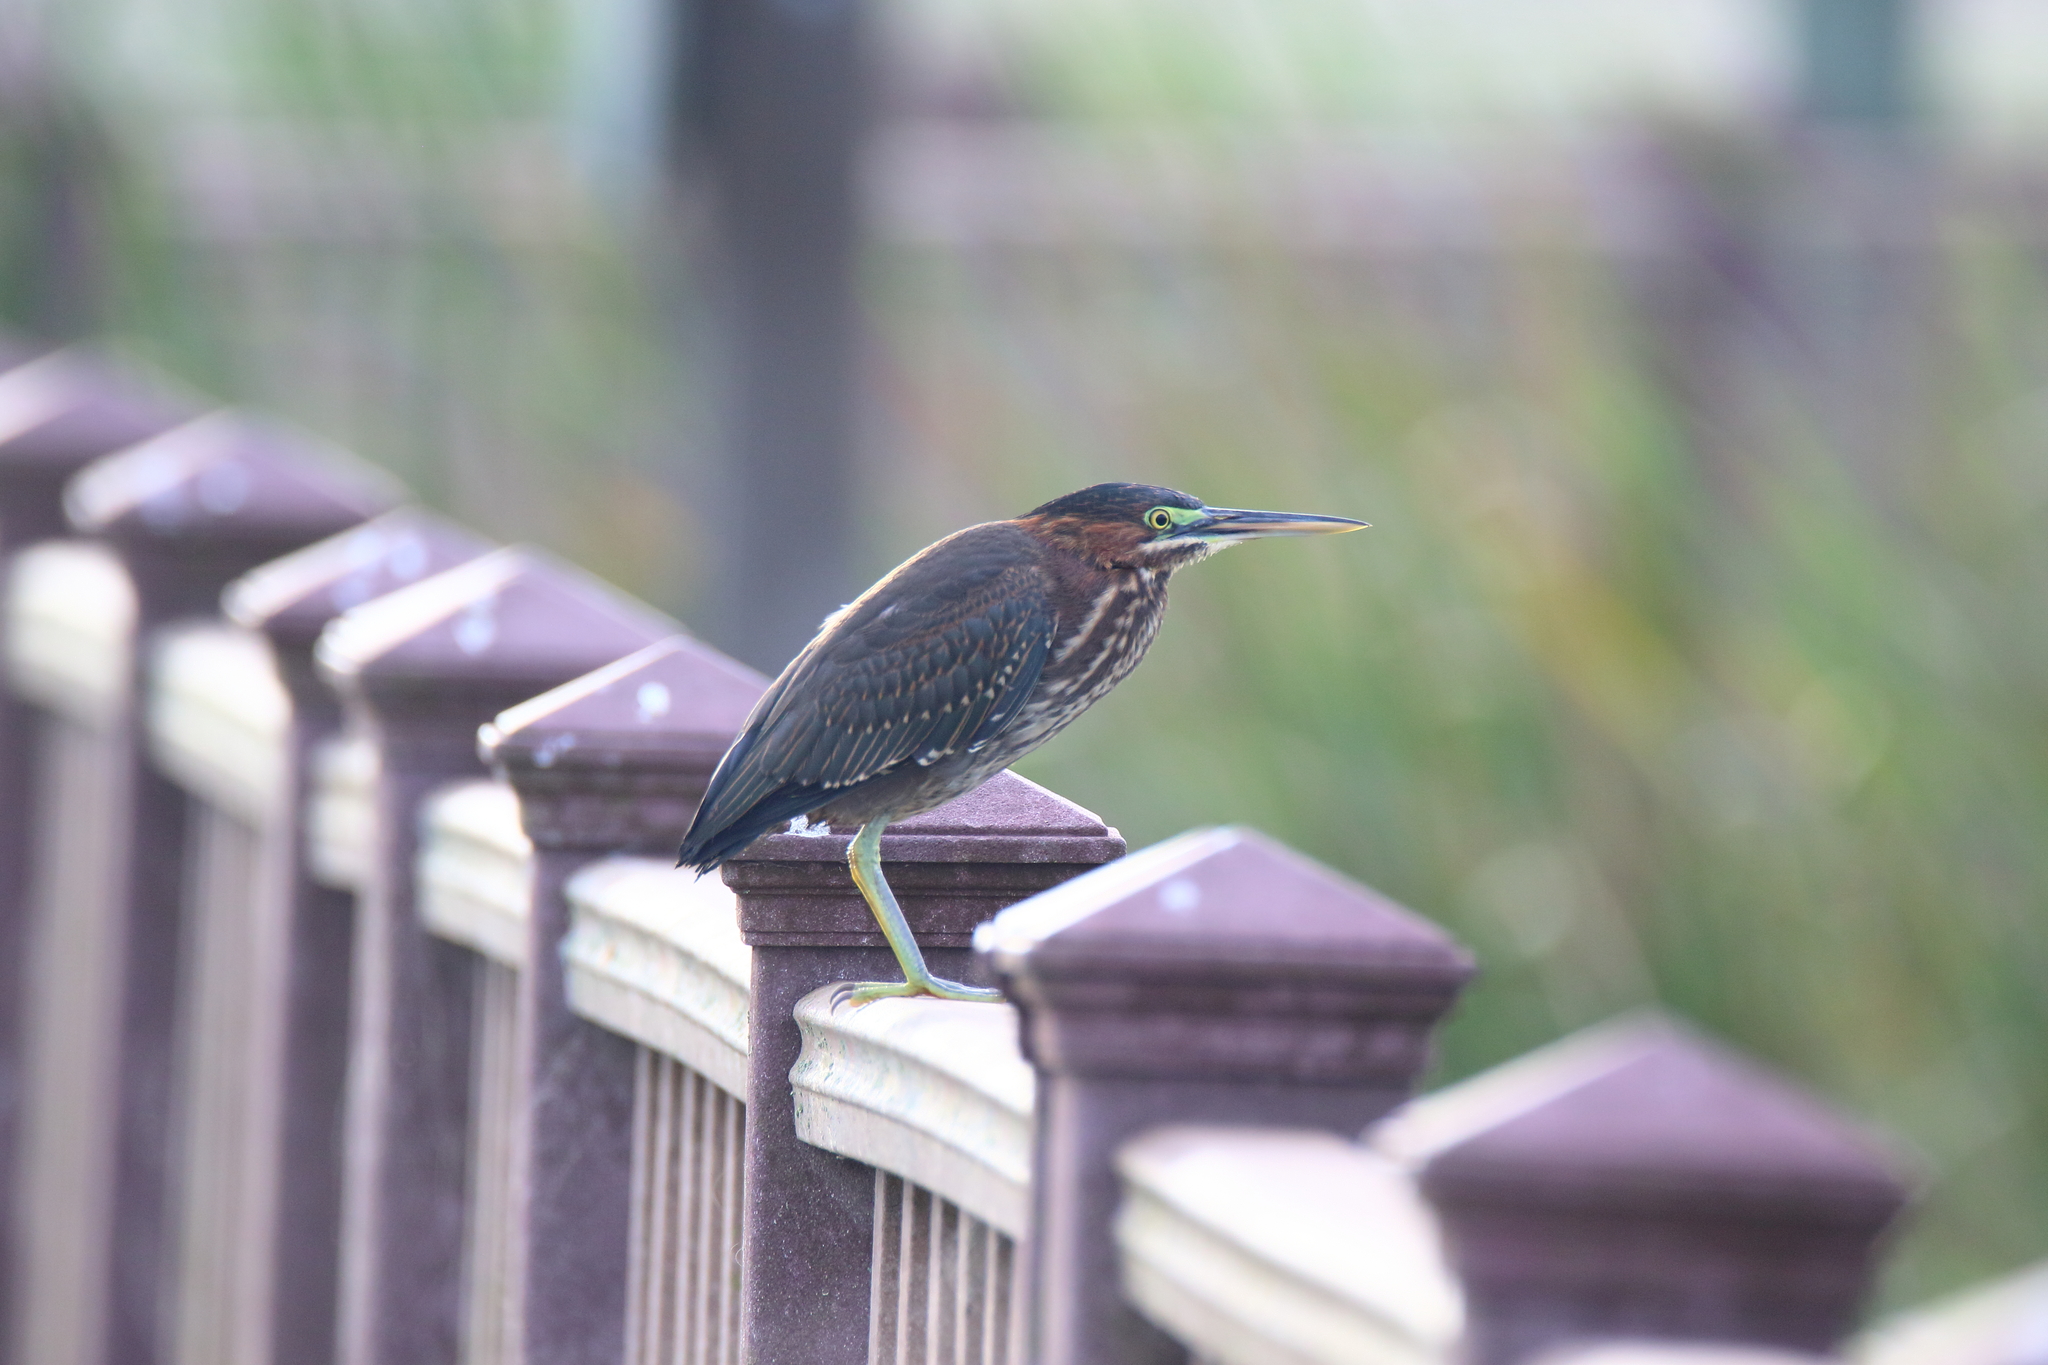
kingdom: Animalia
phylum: Chordata
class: Aves
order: Pelecaniformes
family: Ardeidae
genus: Butorides
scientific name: Butorides virescens
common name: Green heron
